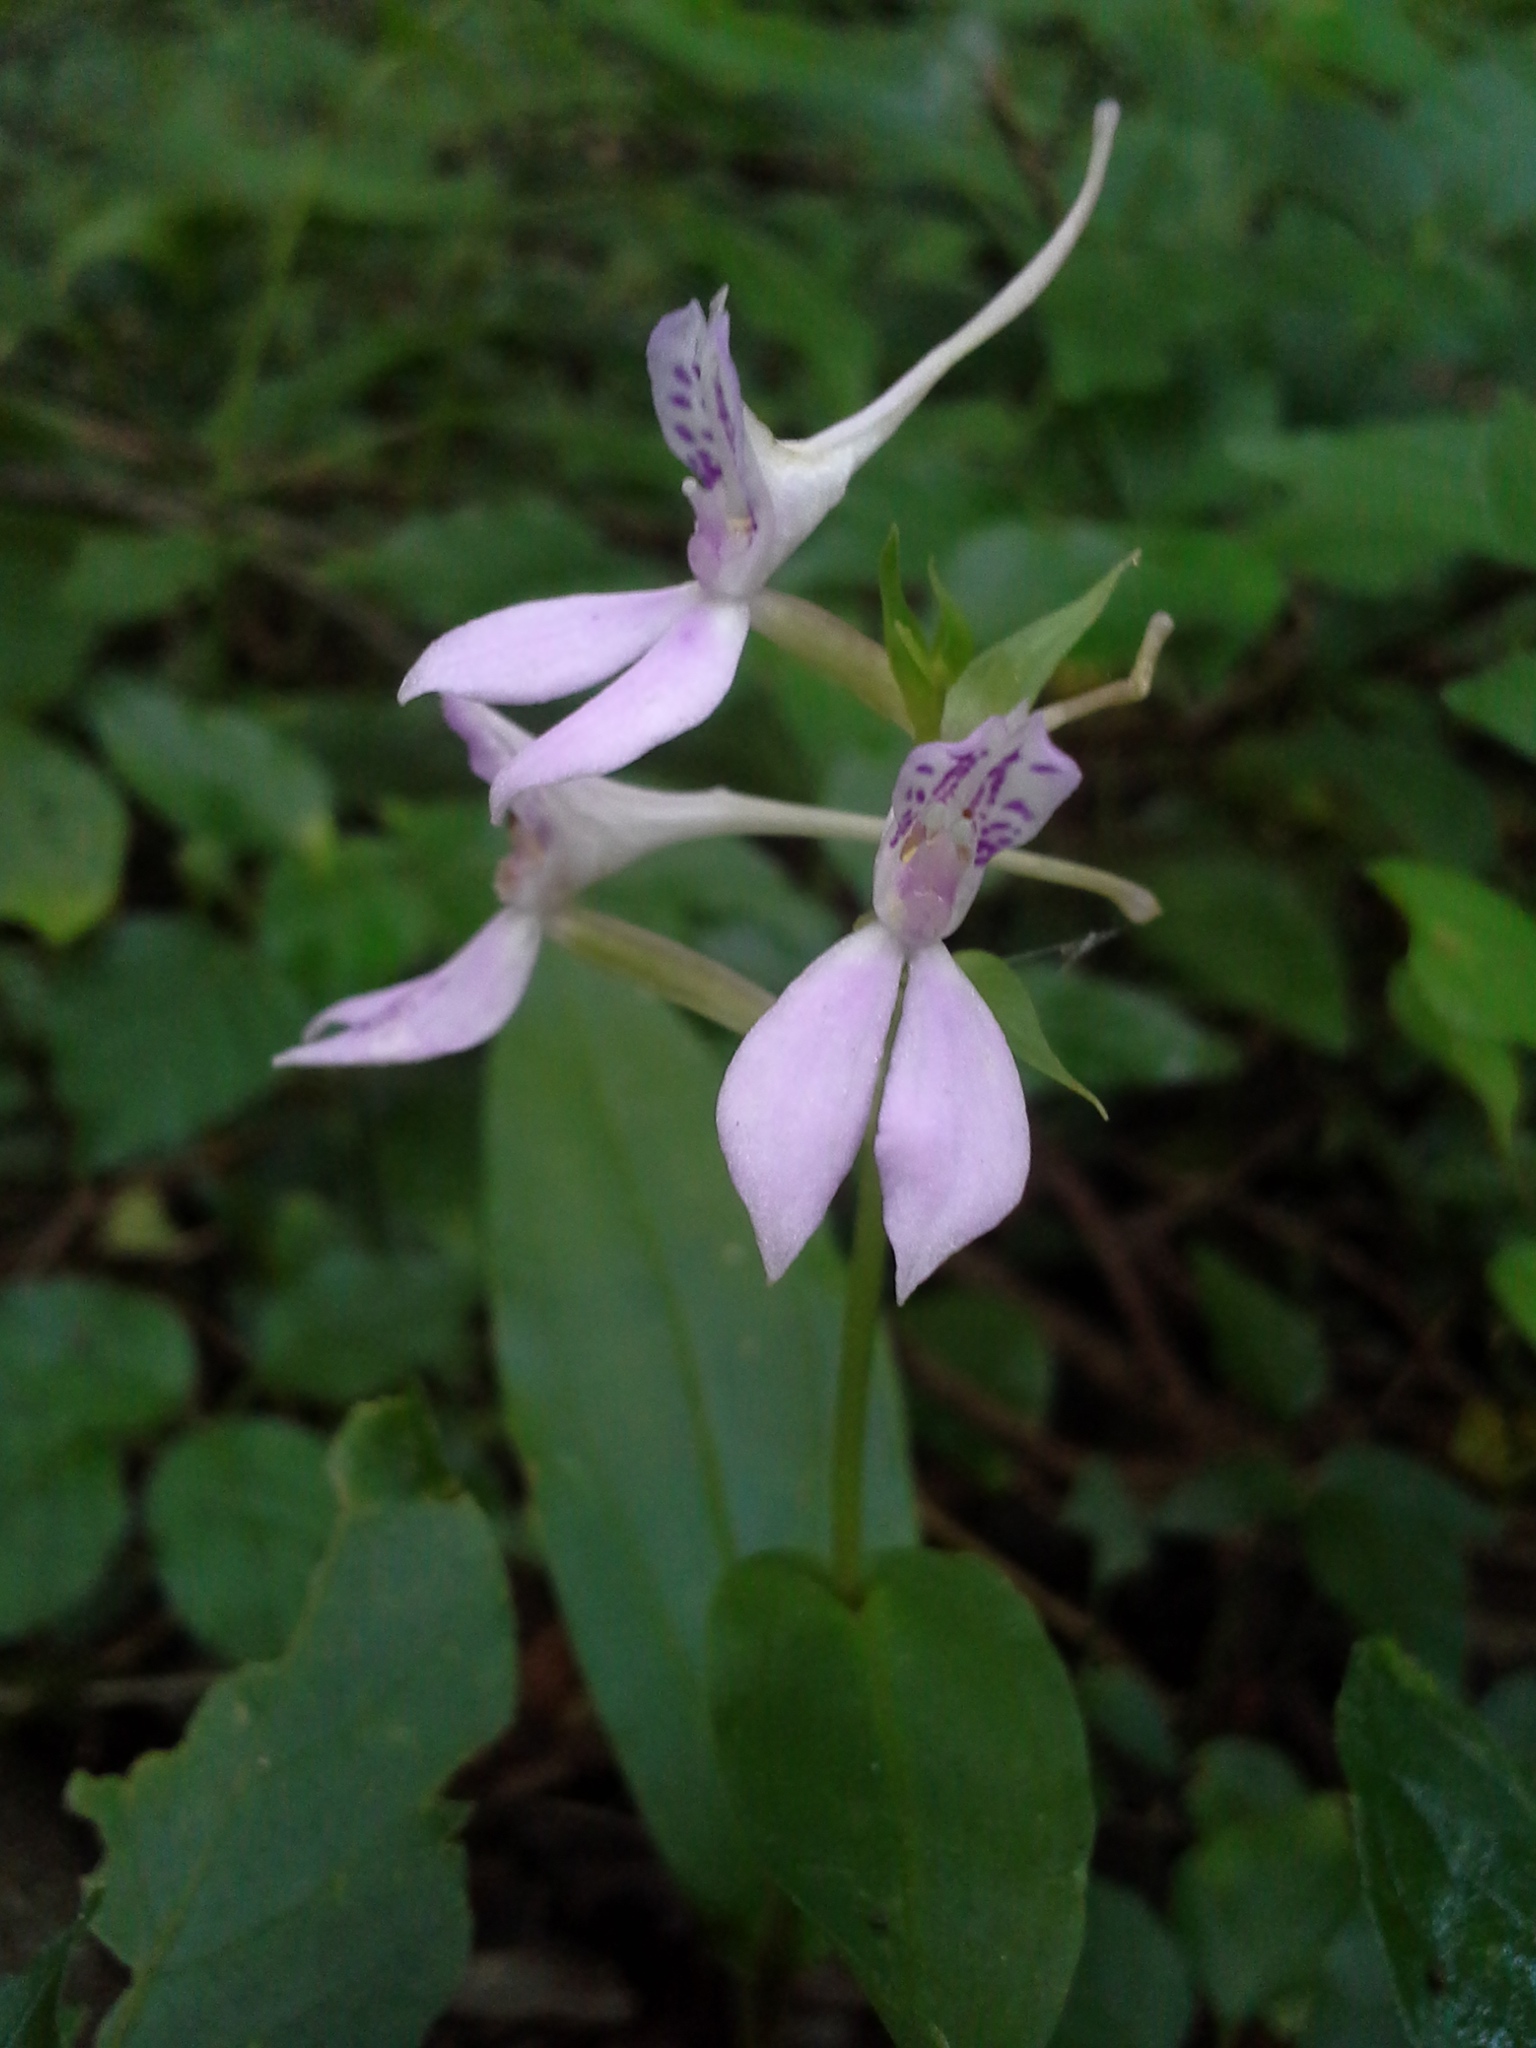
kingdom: Plantae
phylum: Tracheophyta
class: Liliopsida
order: Asparagales
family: Orchidaceae
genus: Brownleea
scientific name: Brownleea coerulea
